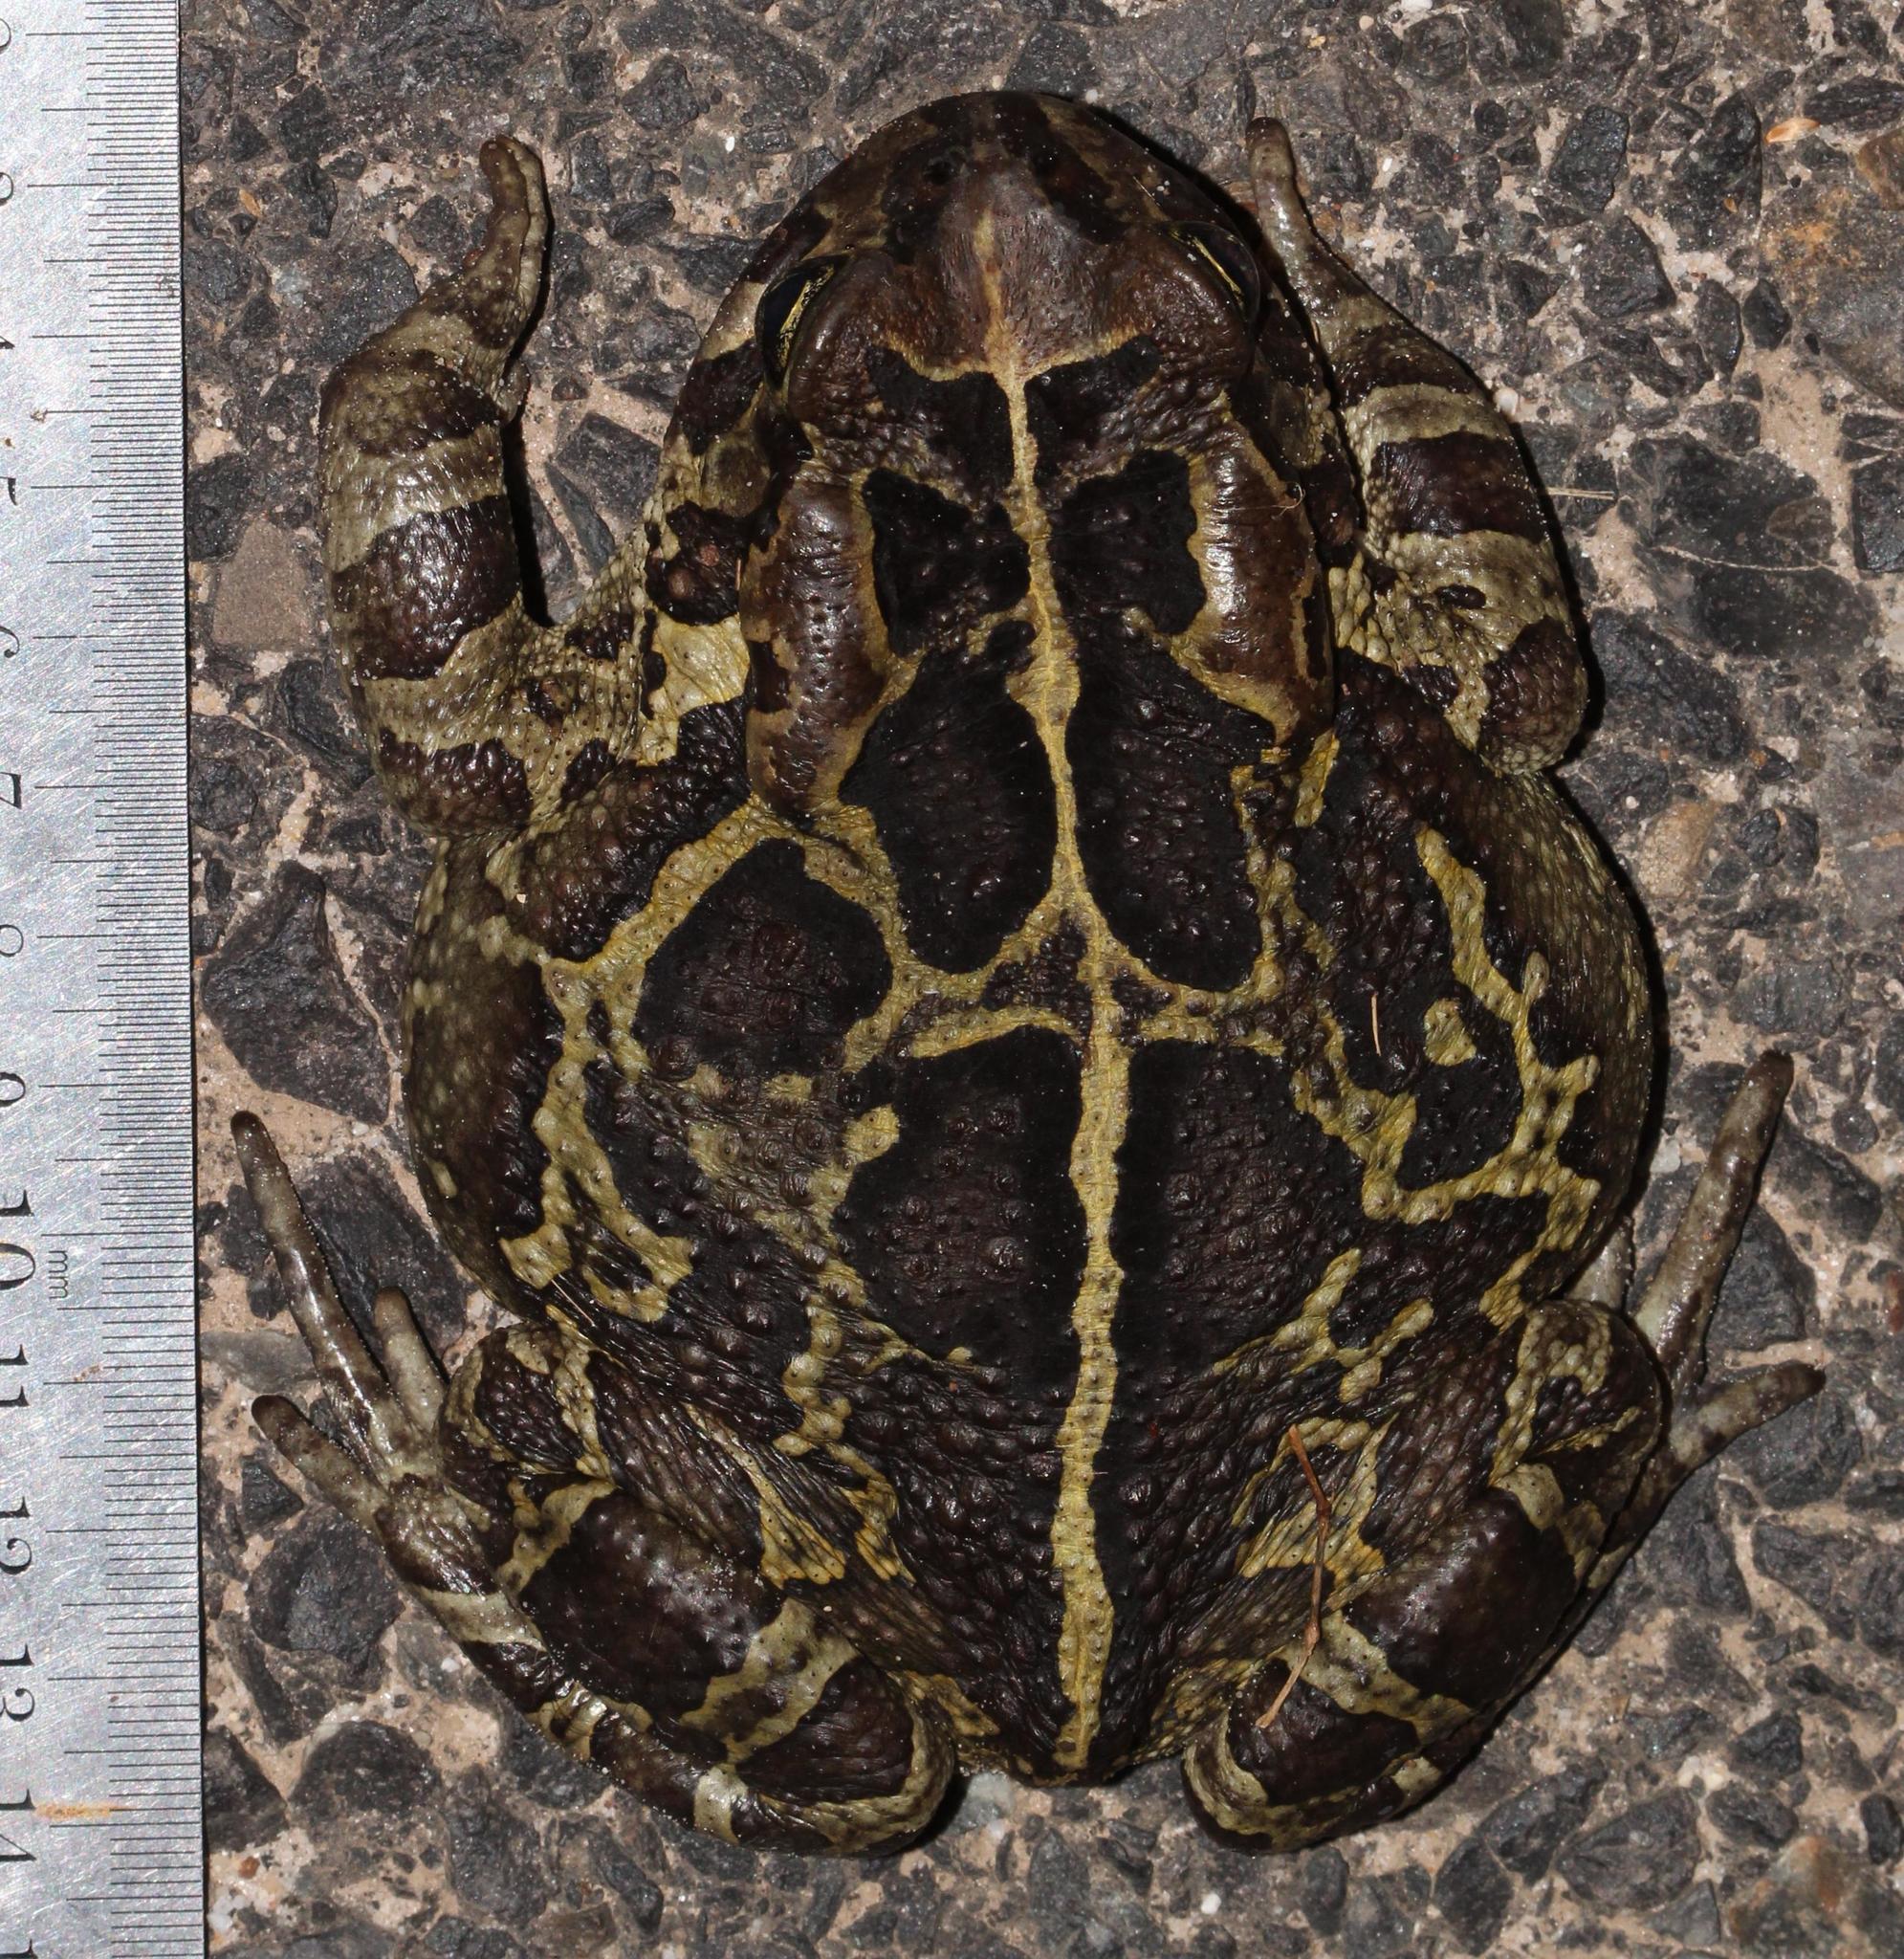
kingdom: Animalia
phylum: Chordata
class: Amphibia
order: Anura
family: Bufonidae
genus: Sclerophrys
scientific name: Sclerophrys pantherina
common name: Panther toad
